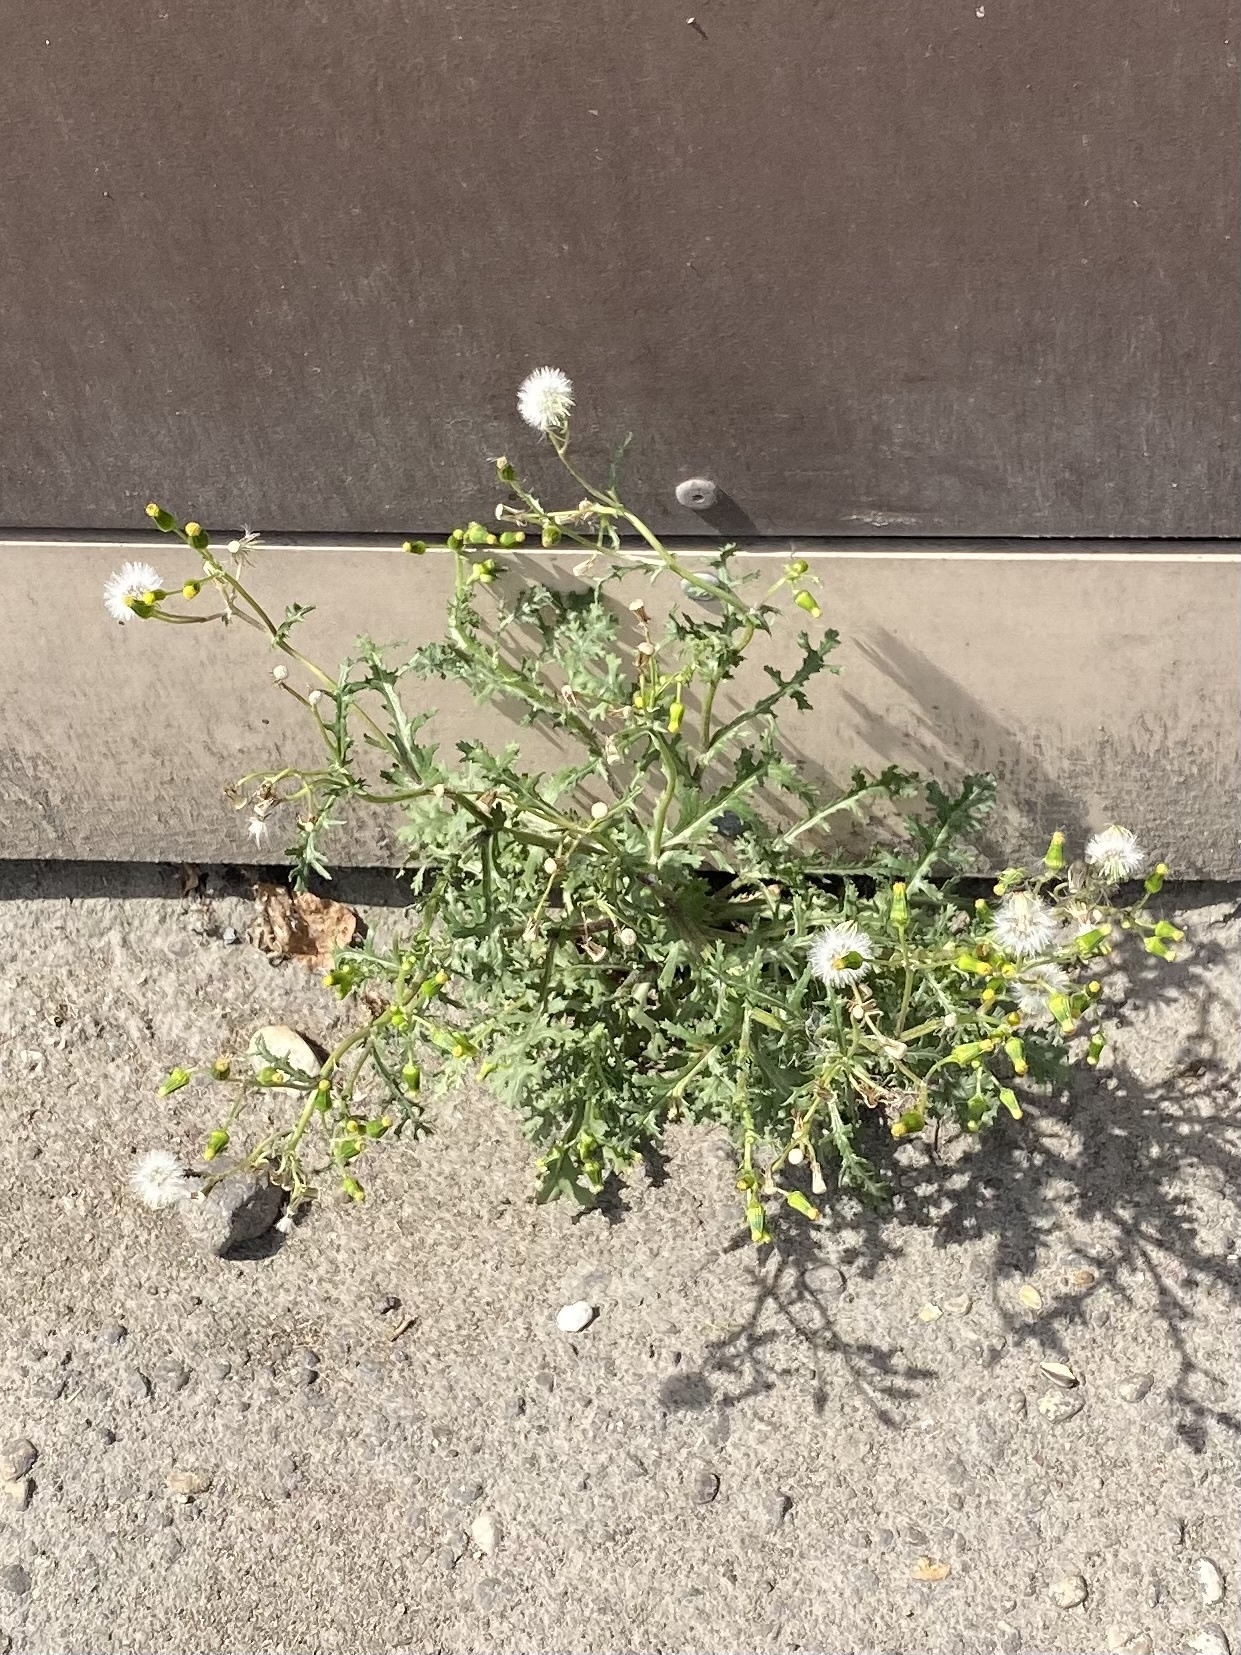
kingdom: Plantae
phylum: Tracheophyta
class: Magnoliopsida
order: Asterales
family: Asteraceae
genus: Senecio
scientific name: Senecio vulgaris
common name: Old-man-in-the-spring
